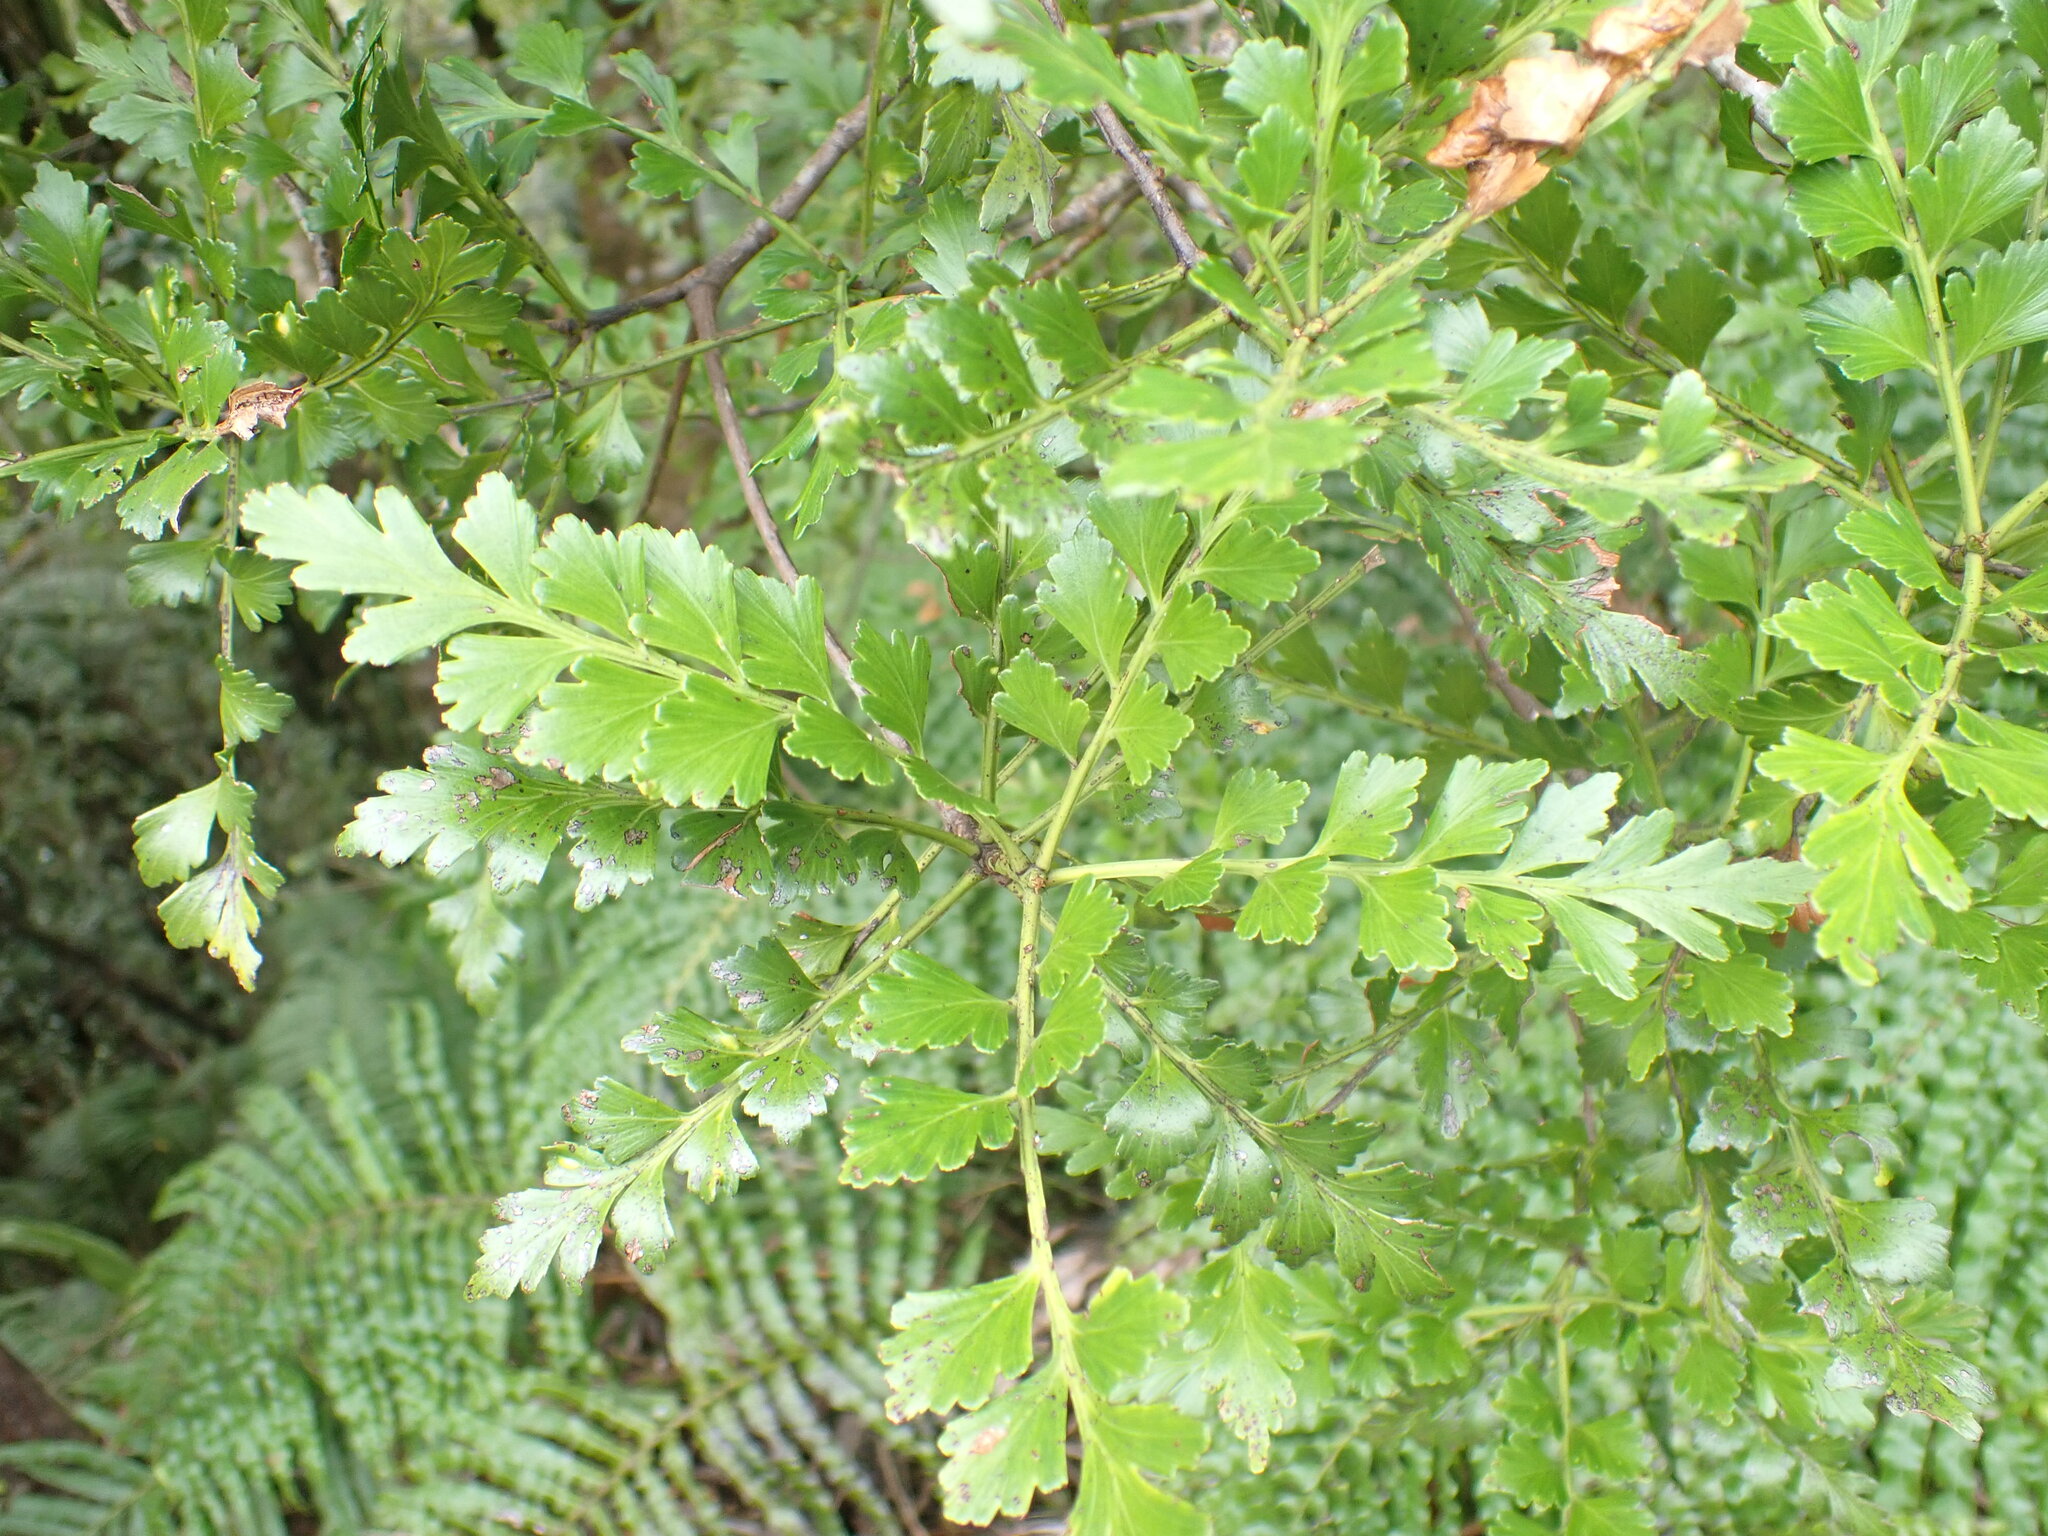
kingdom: Plantae
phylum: Tracheophyta
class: Pinopsida
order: Pinales
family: Phyllocladaceae
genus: Phyllocladus
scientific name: Phyllocladus trichomanoides
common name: Celery pine
